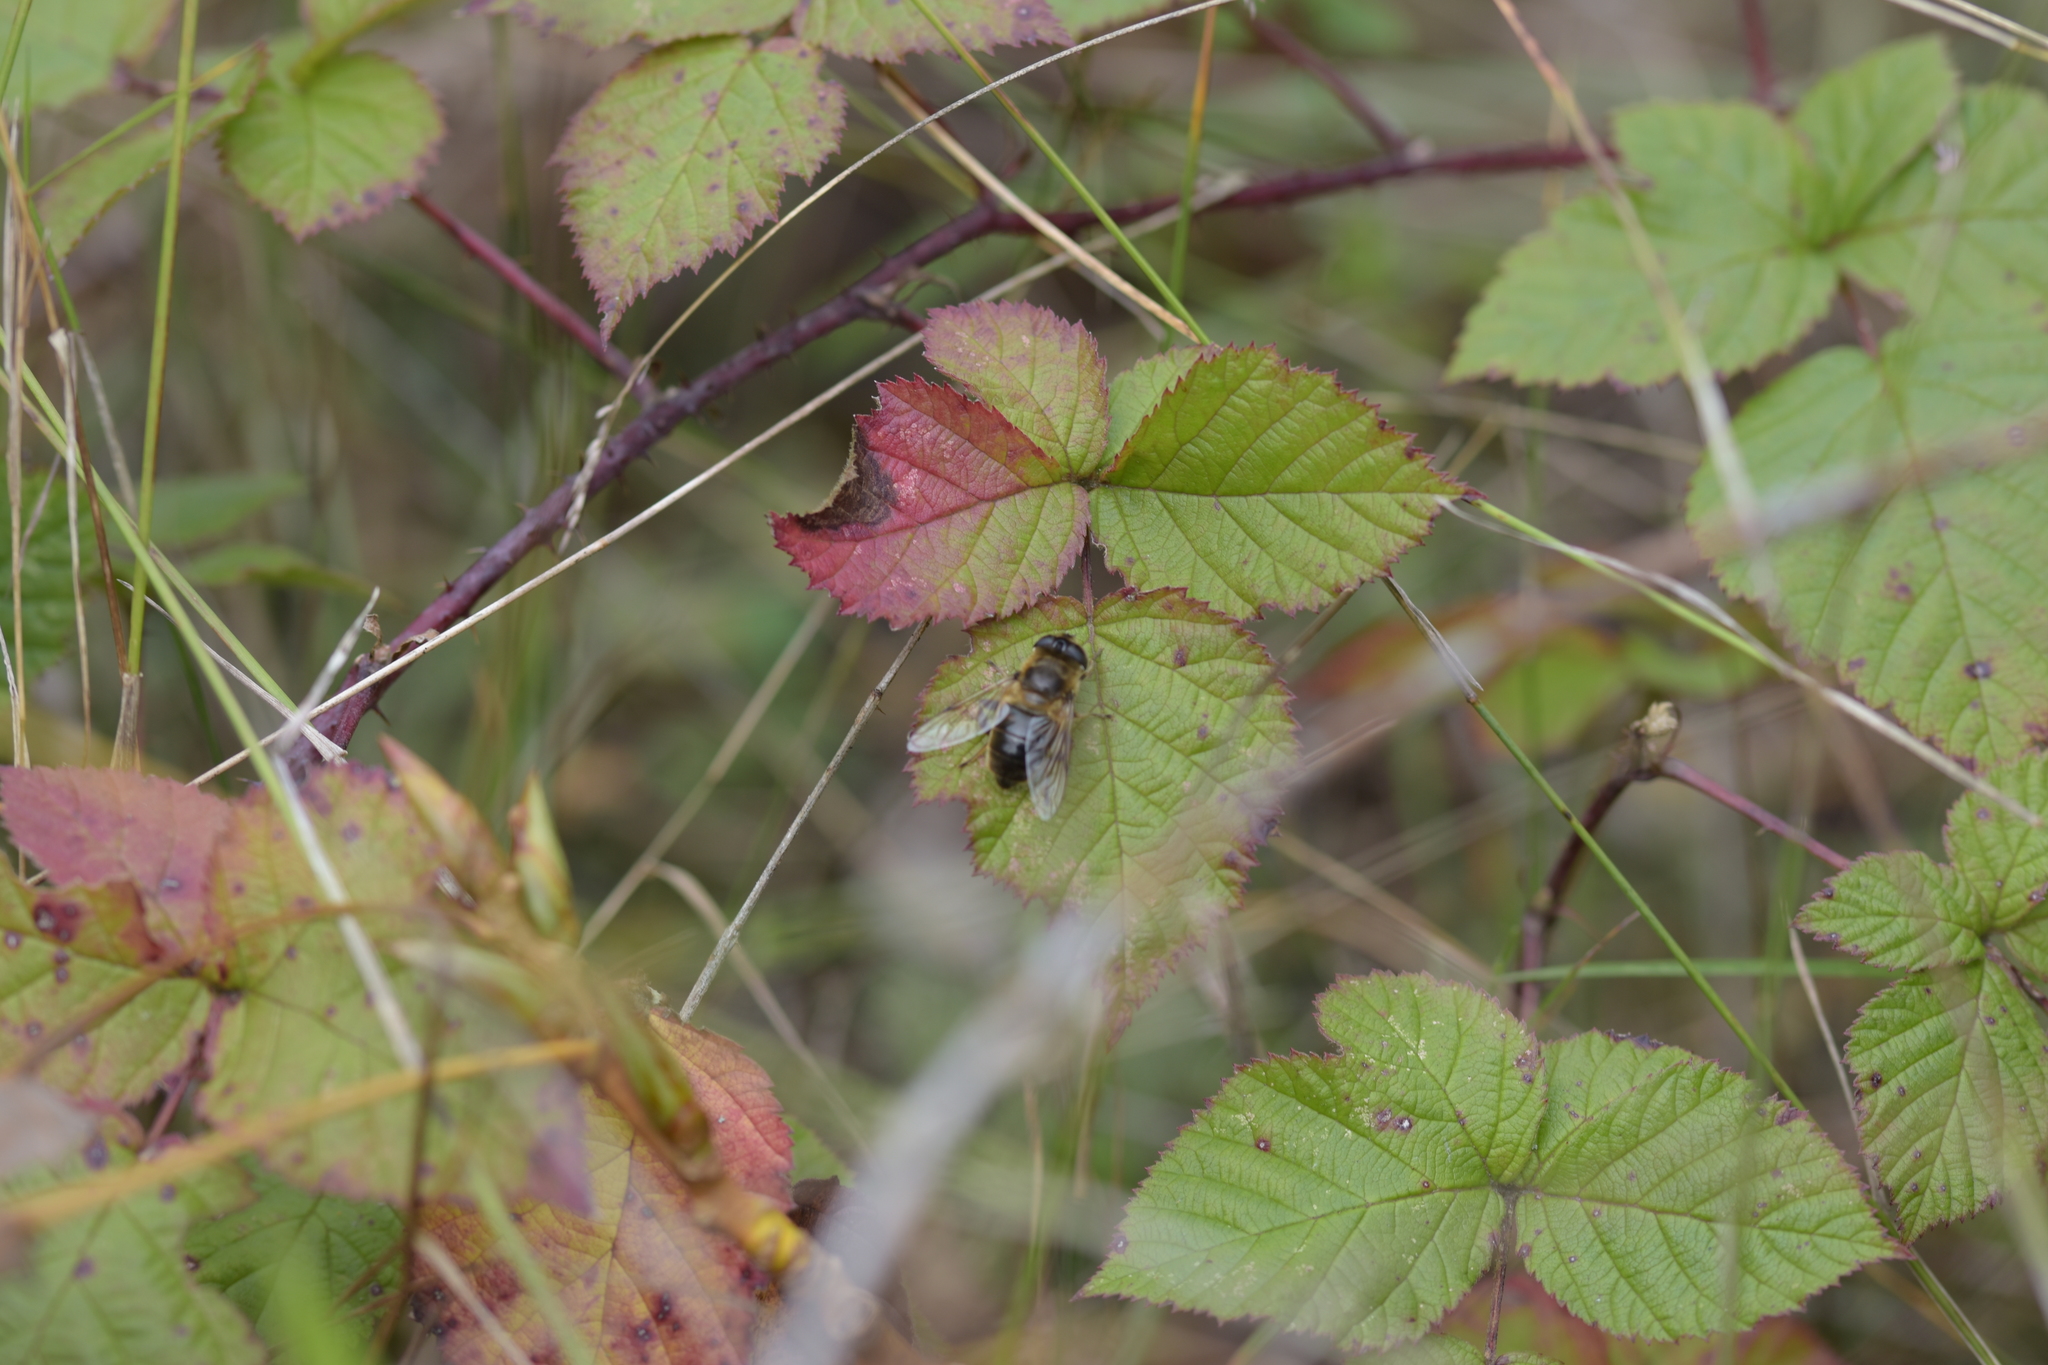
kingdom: Animalia
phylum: Arthropoda
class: Insecta
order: Diptera
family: Syrphidae
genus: Eristalis
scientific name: Eristalis tenax
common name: Drone fly
